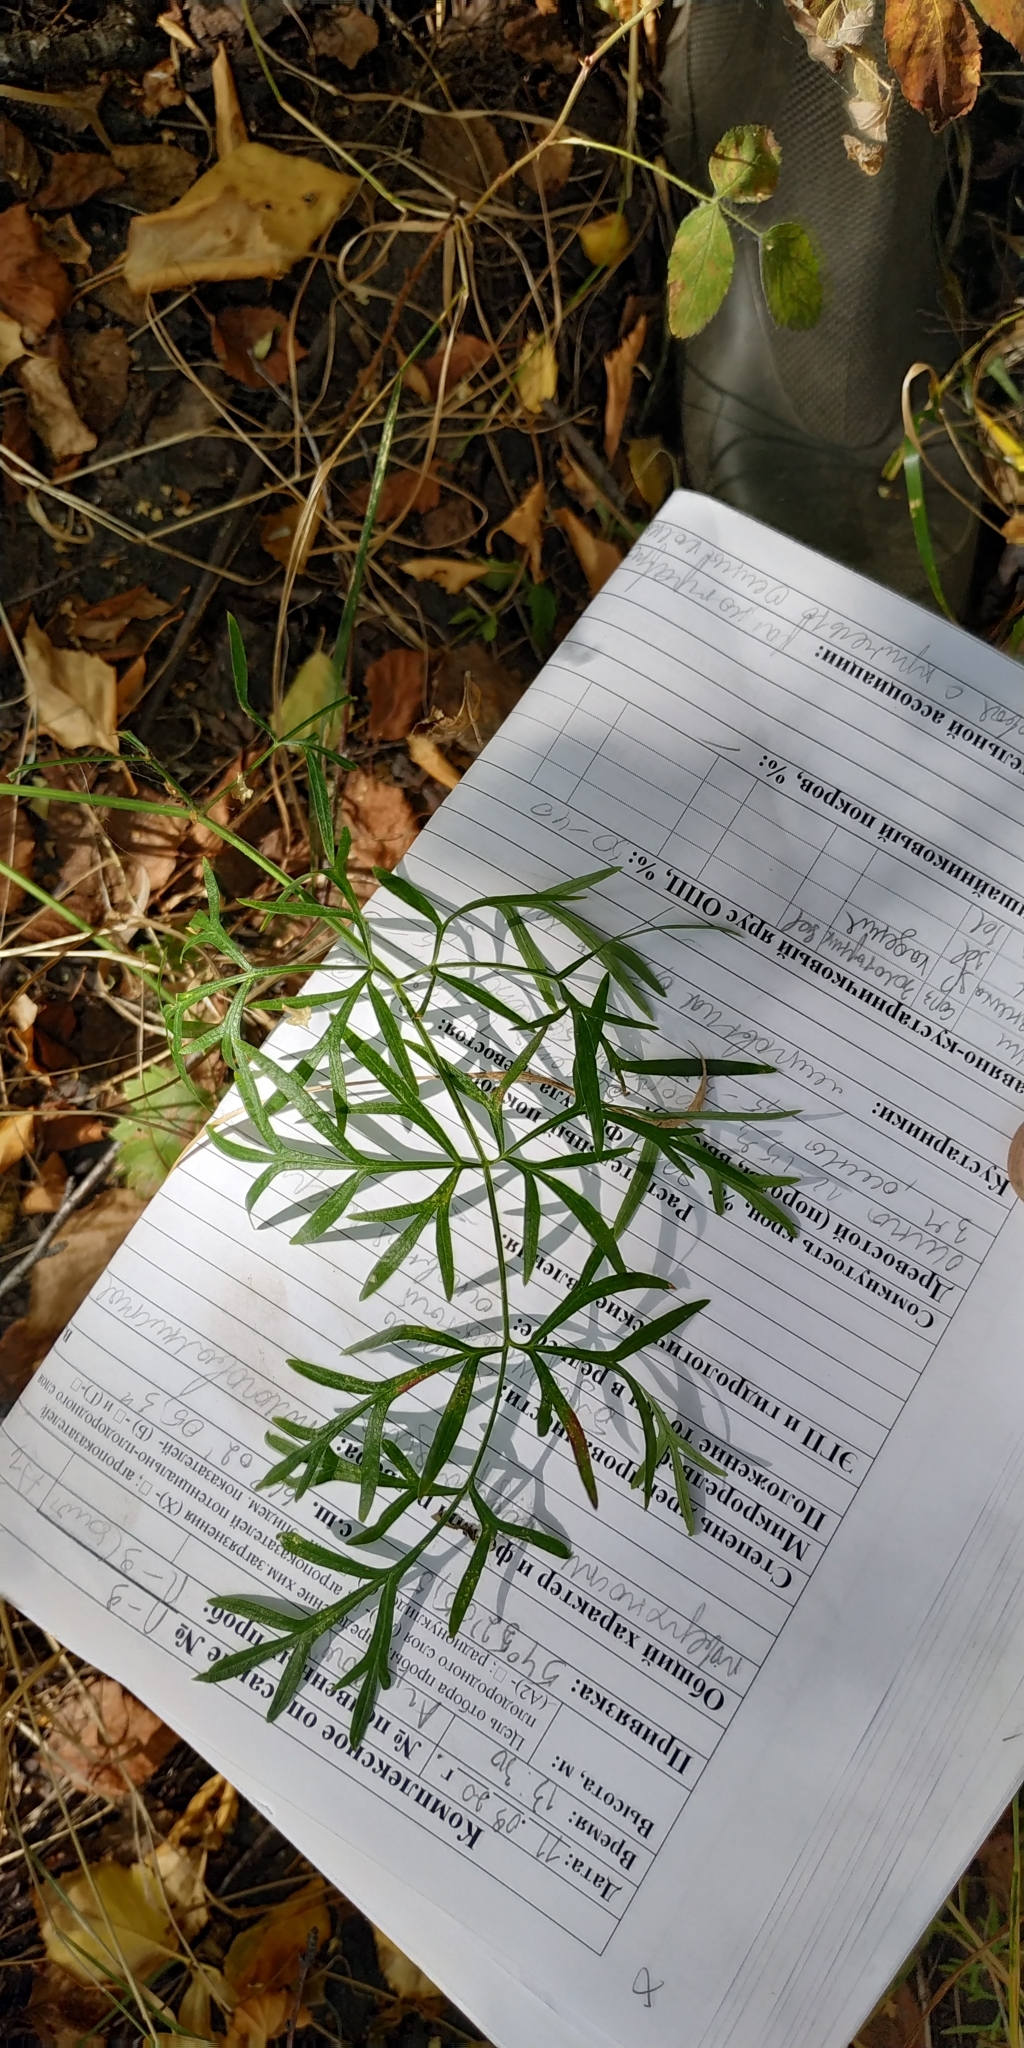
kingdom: Plantae
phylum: Tracheophyta
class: Magnoliopsida
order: Apiales
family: Apiaceae
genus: Cenolophium
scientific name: Cenolophium fischeri
